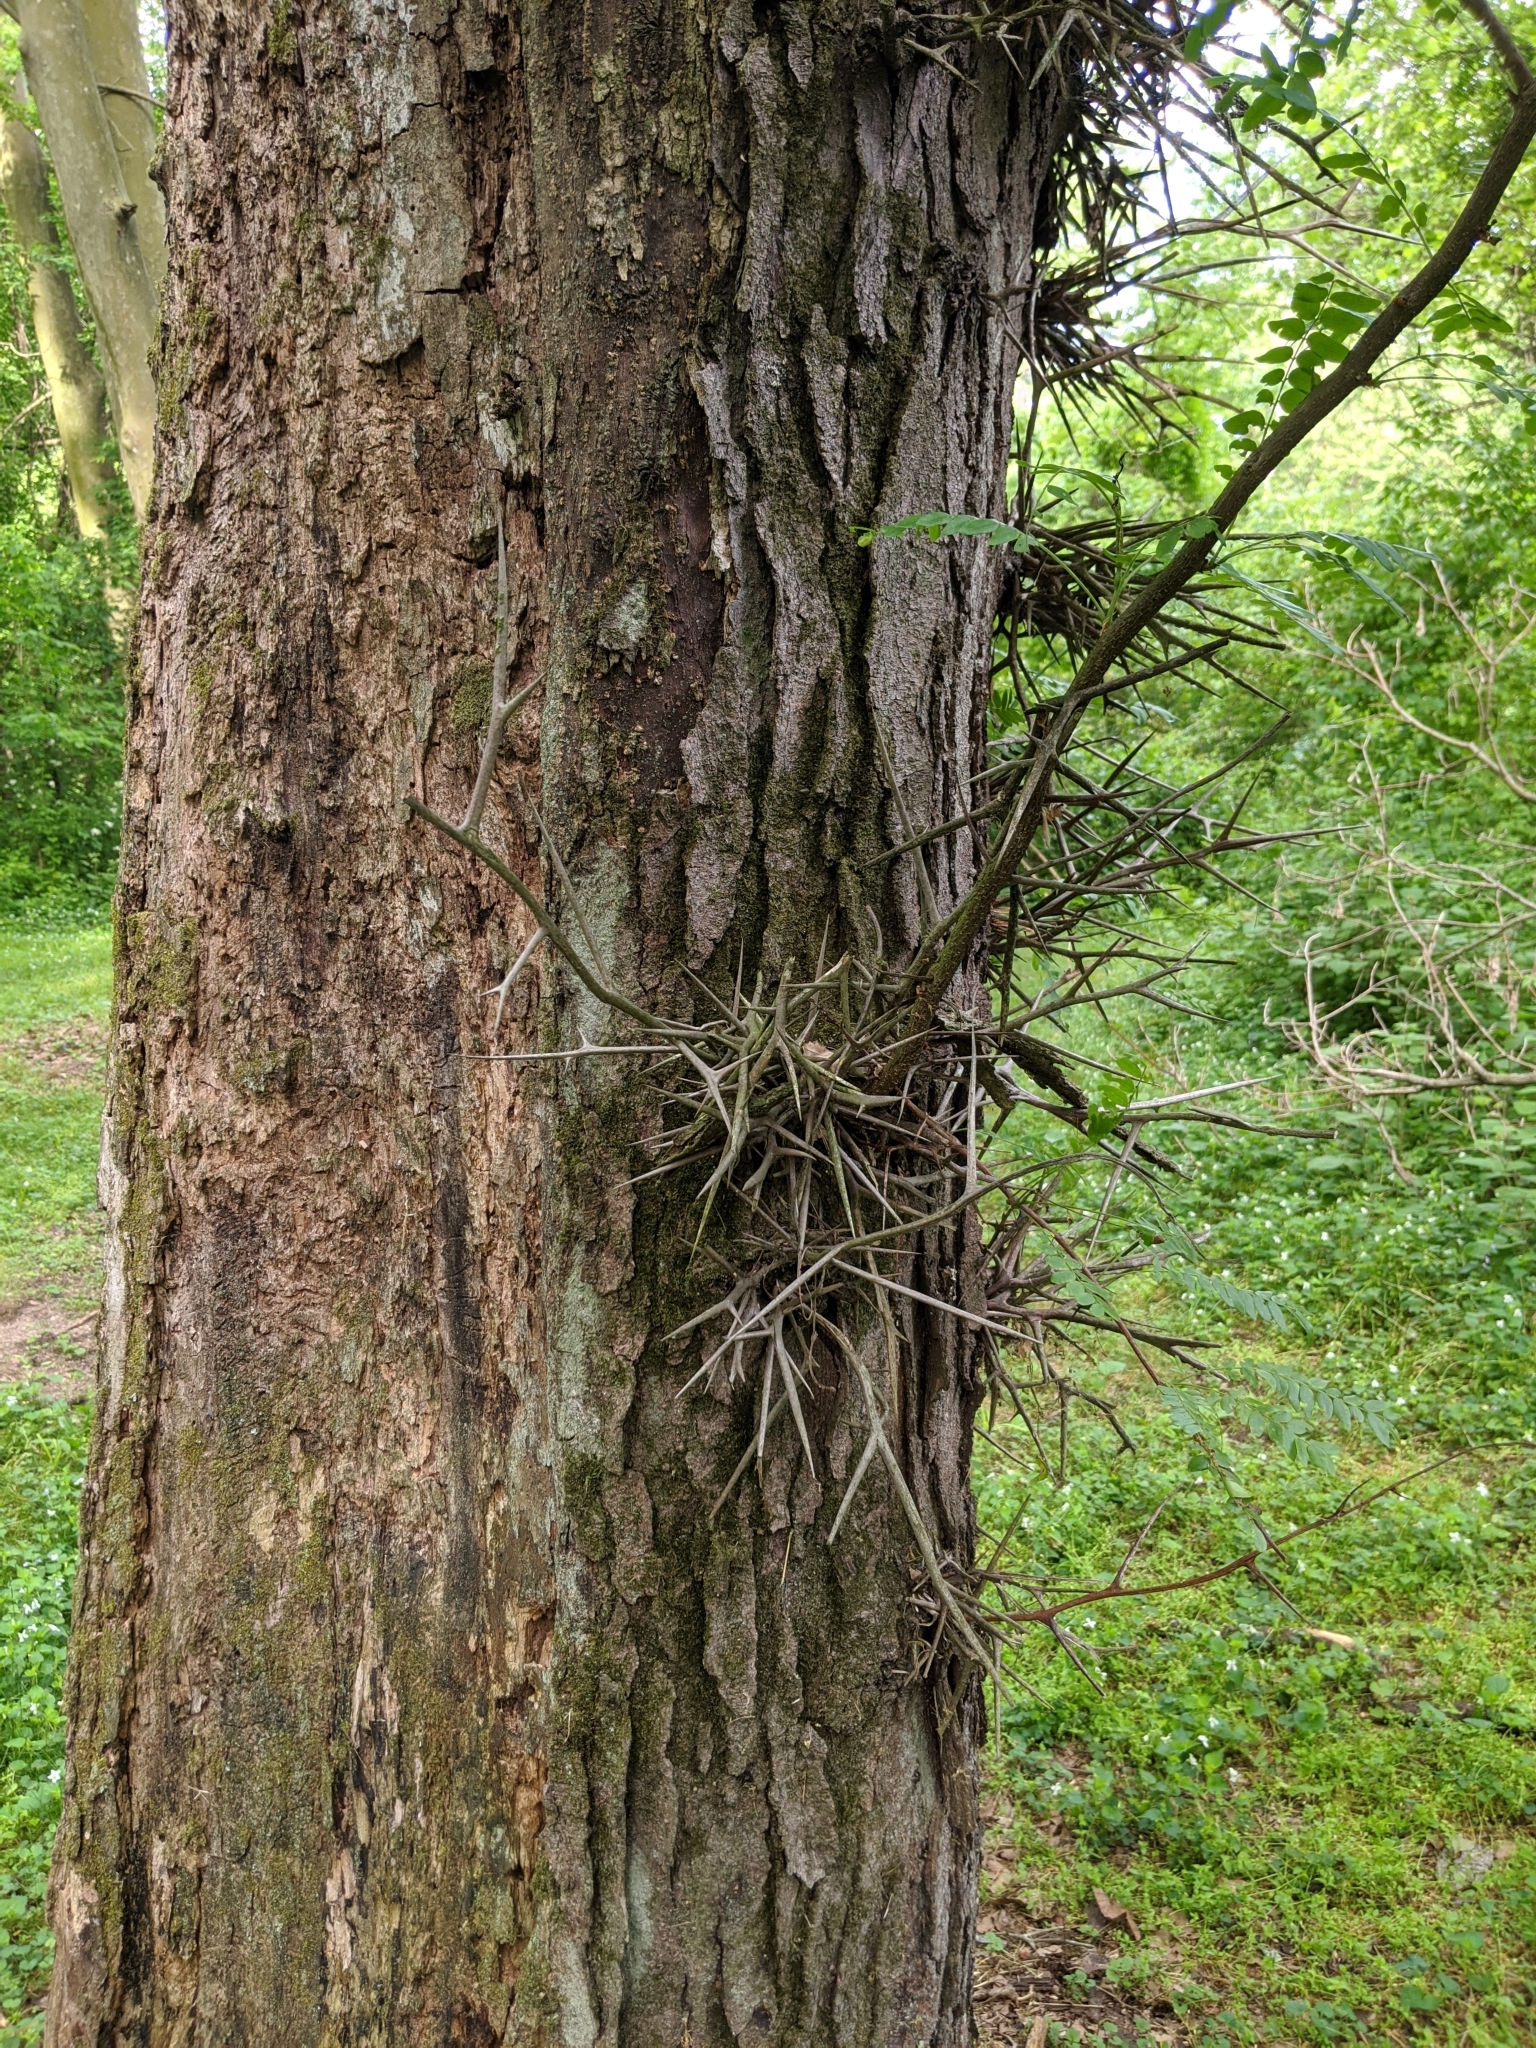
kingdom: Plantae
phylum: Tracheophyta
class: Magnoliopsida
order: Fabales
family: Fabaceae
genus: Gleditsia
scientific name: Gleditsia triacanthos
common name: Common honeylocust
